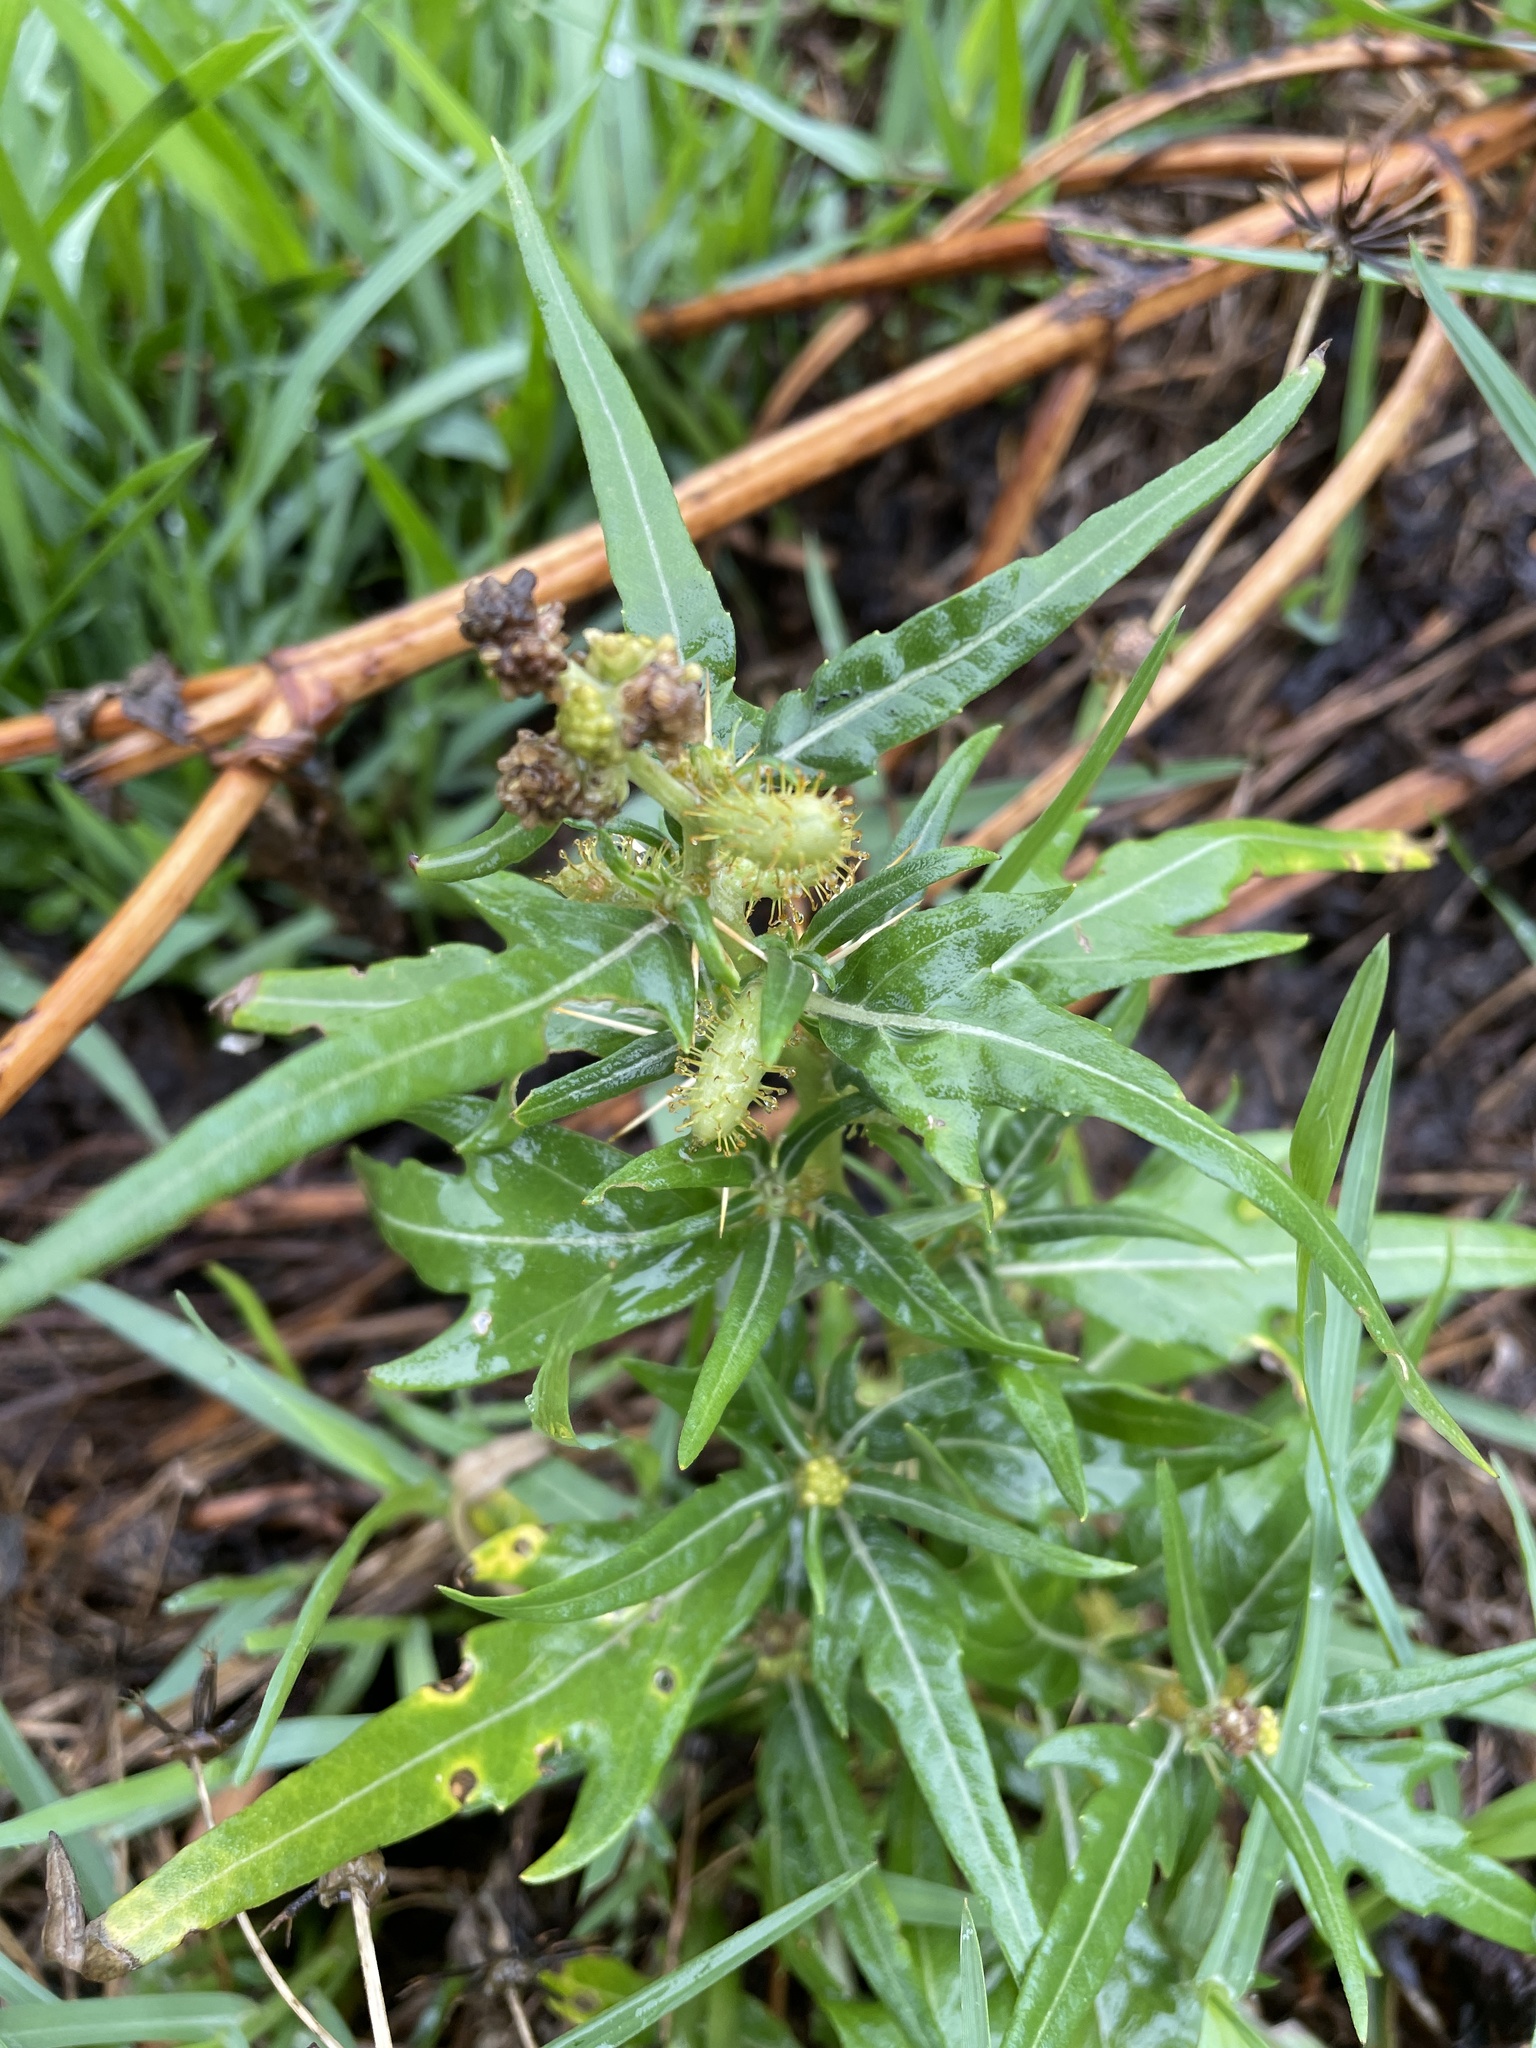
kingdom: Plantae
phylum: Tracheophyta
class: Magnoliopsida
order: Asterales
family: Asteraceae
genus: Xanthium
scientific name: Xanthium spinosum
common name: Spiny cocklebur
